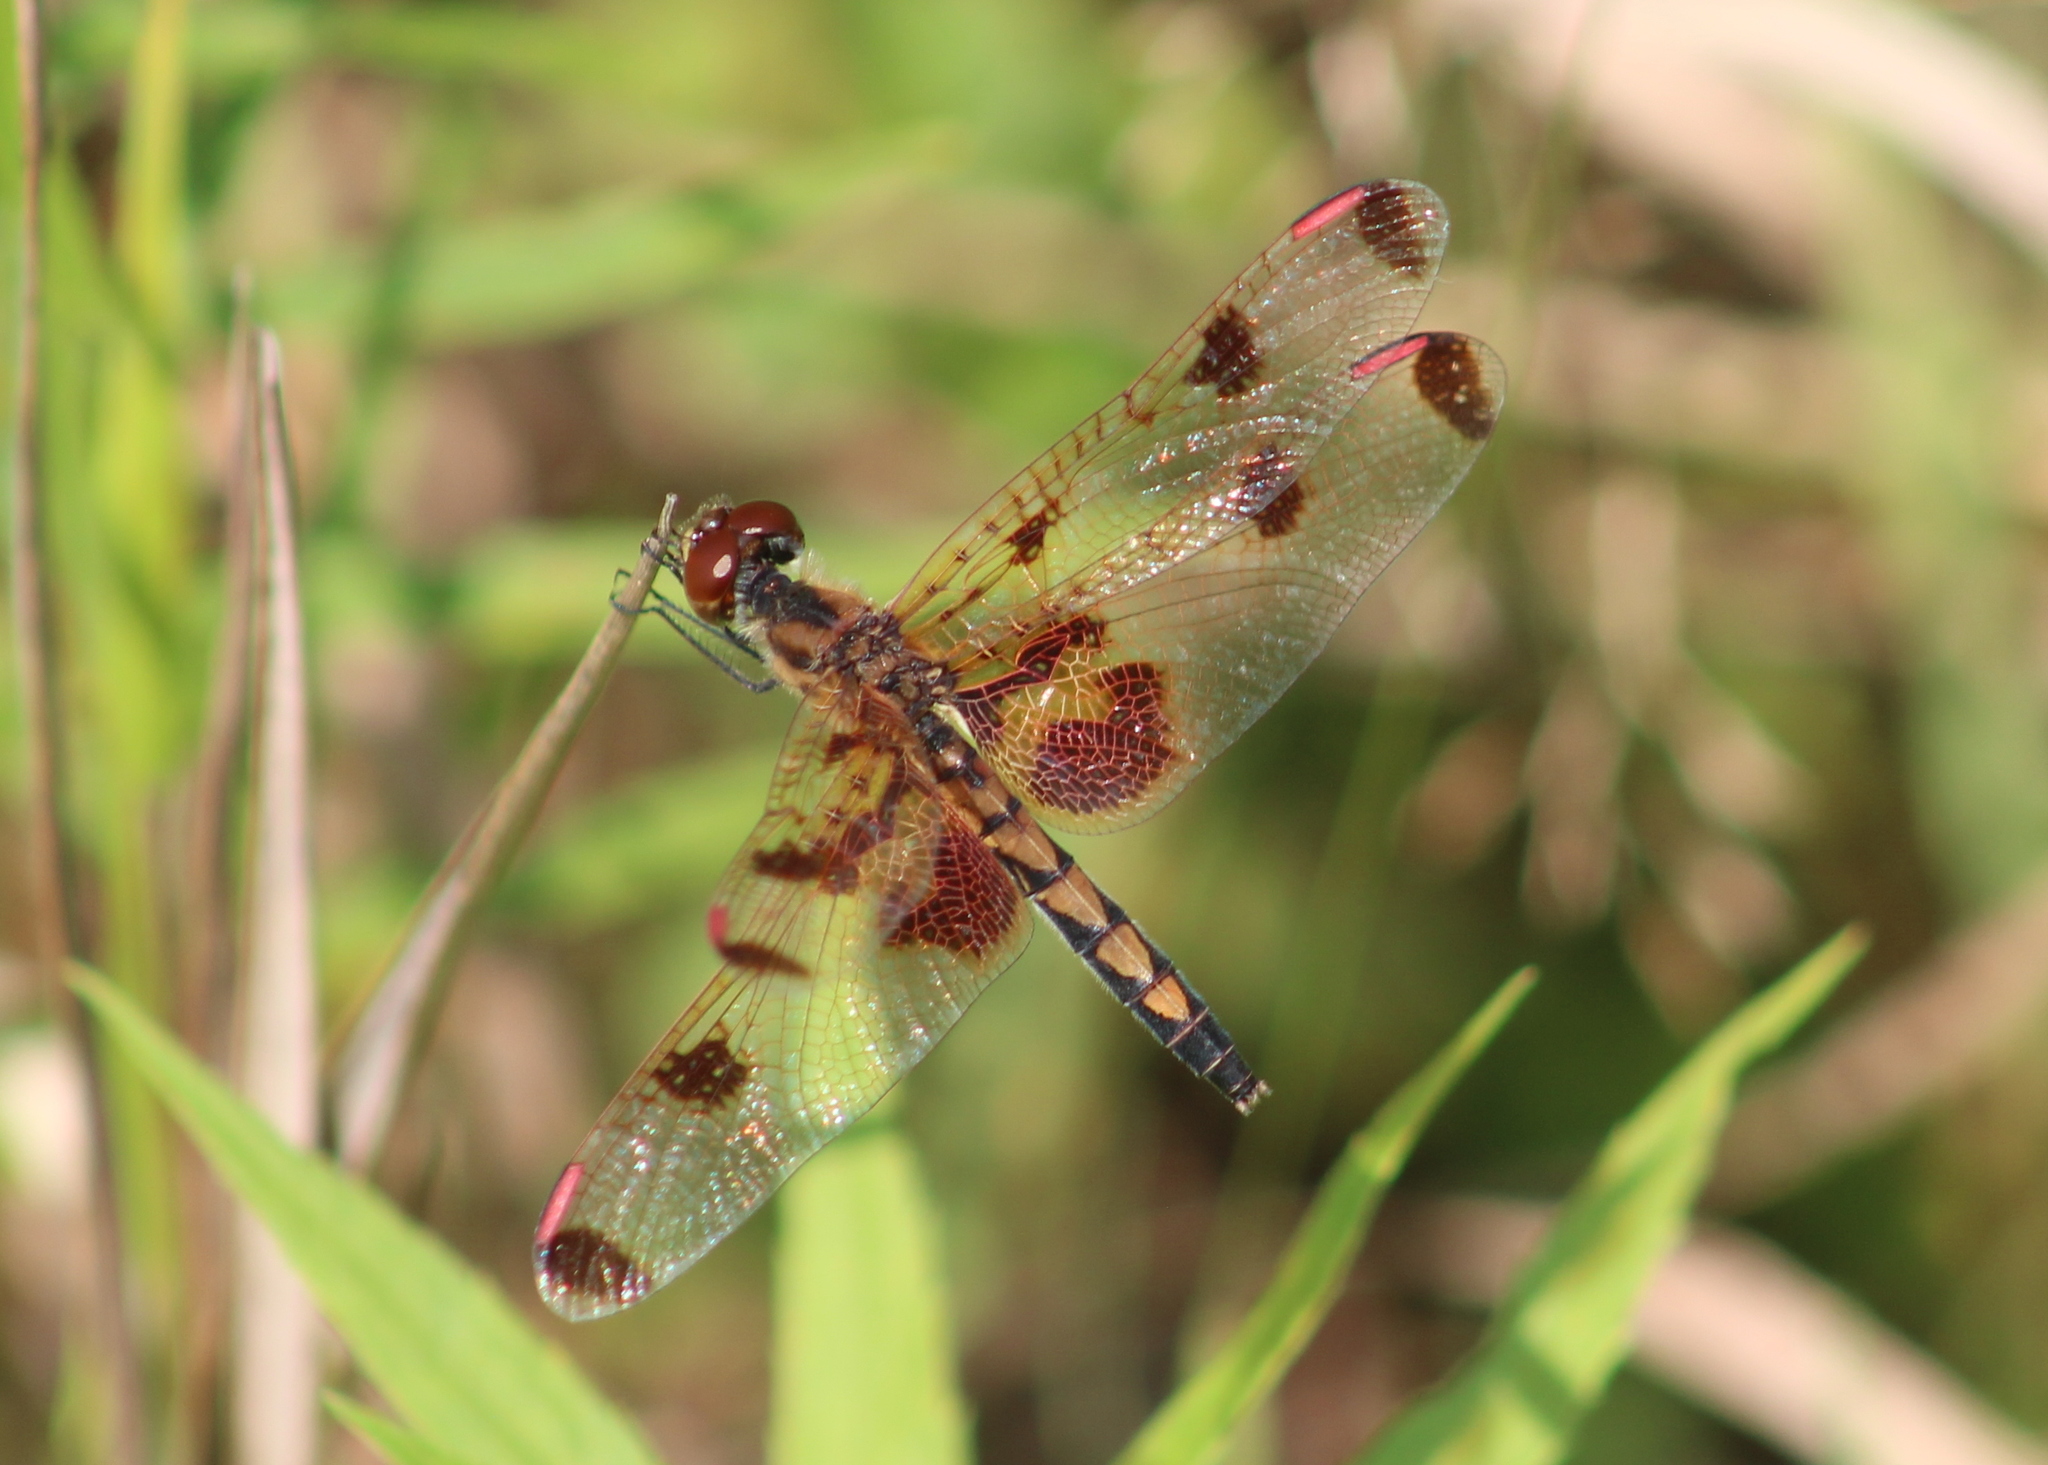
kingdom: Animalia
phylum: Arthropoda
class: Insecta
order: Odonata
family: Libellulidae
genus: Celithemis
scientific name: Celithemis elisa
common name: Calico pennant
